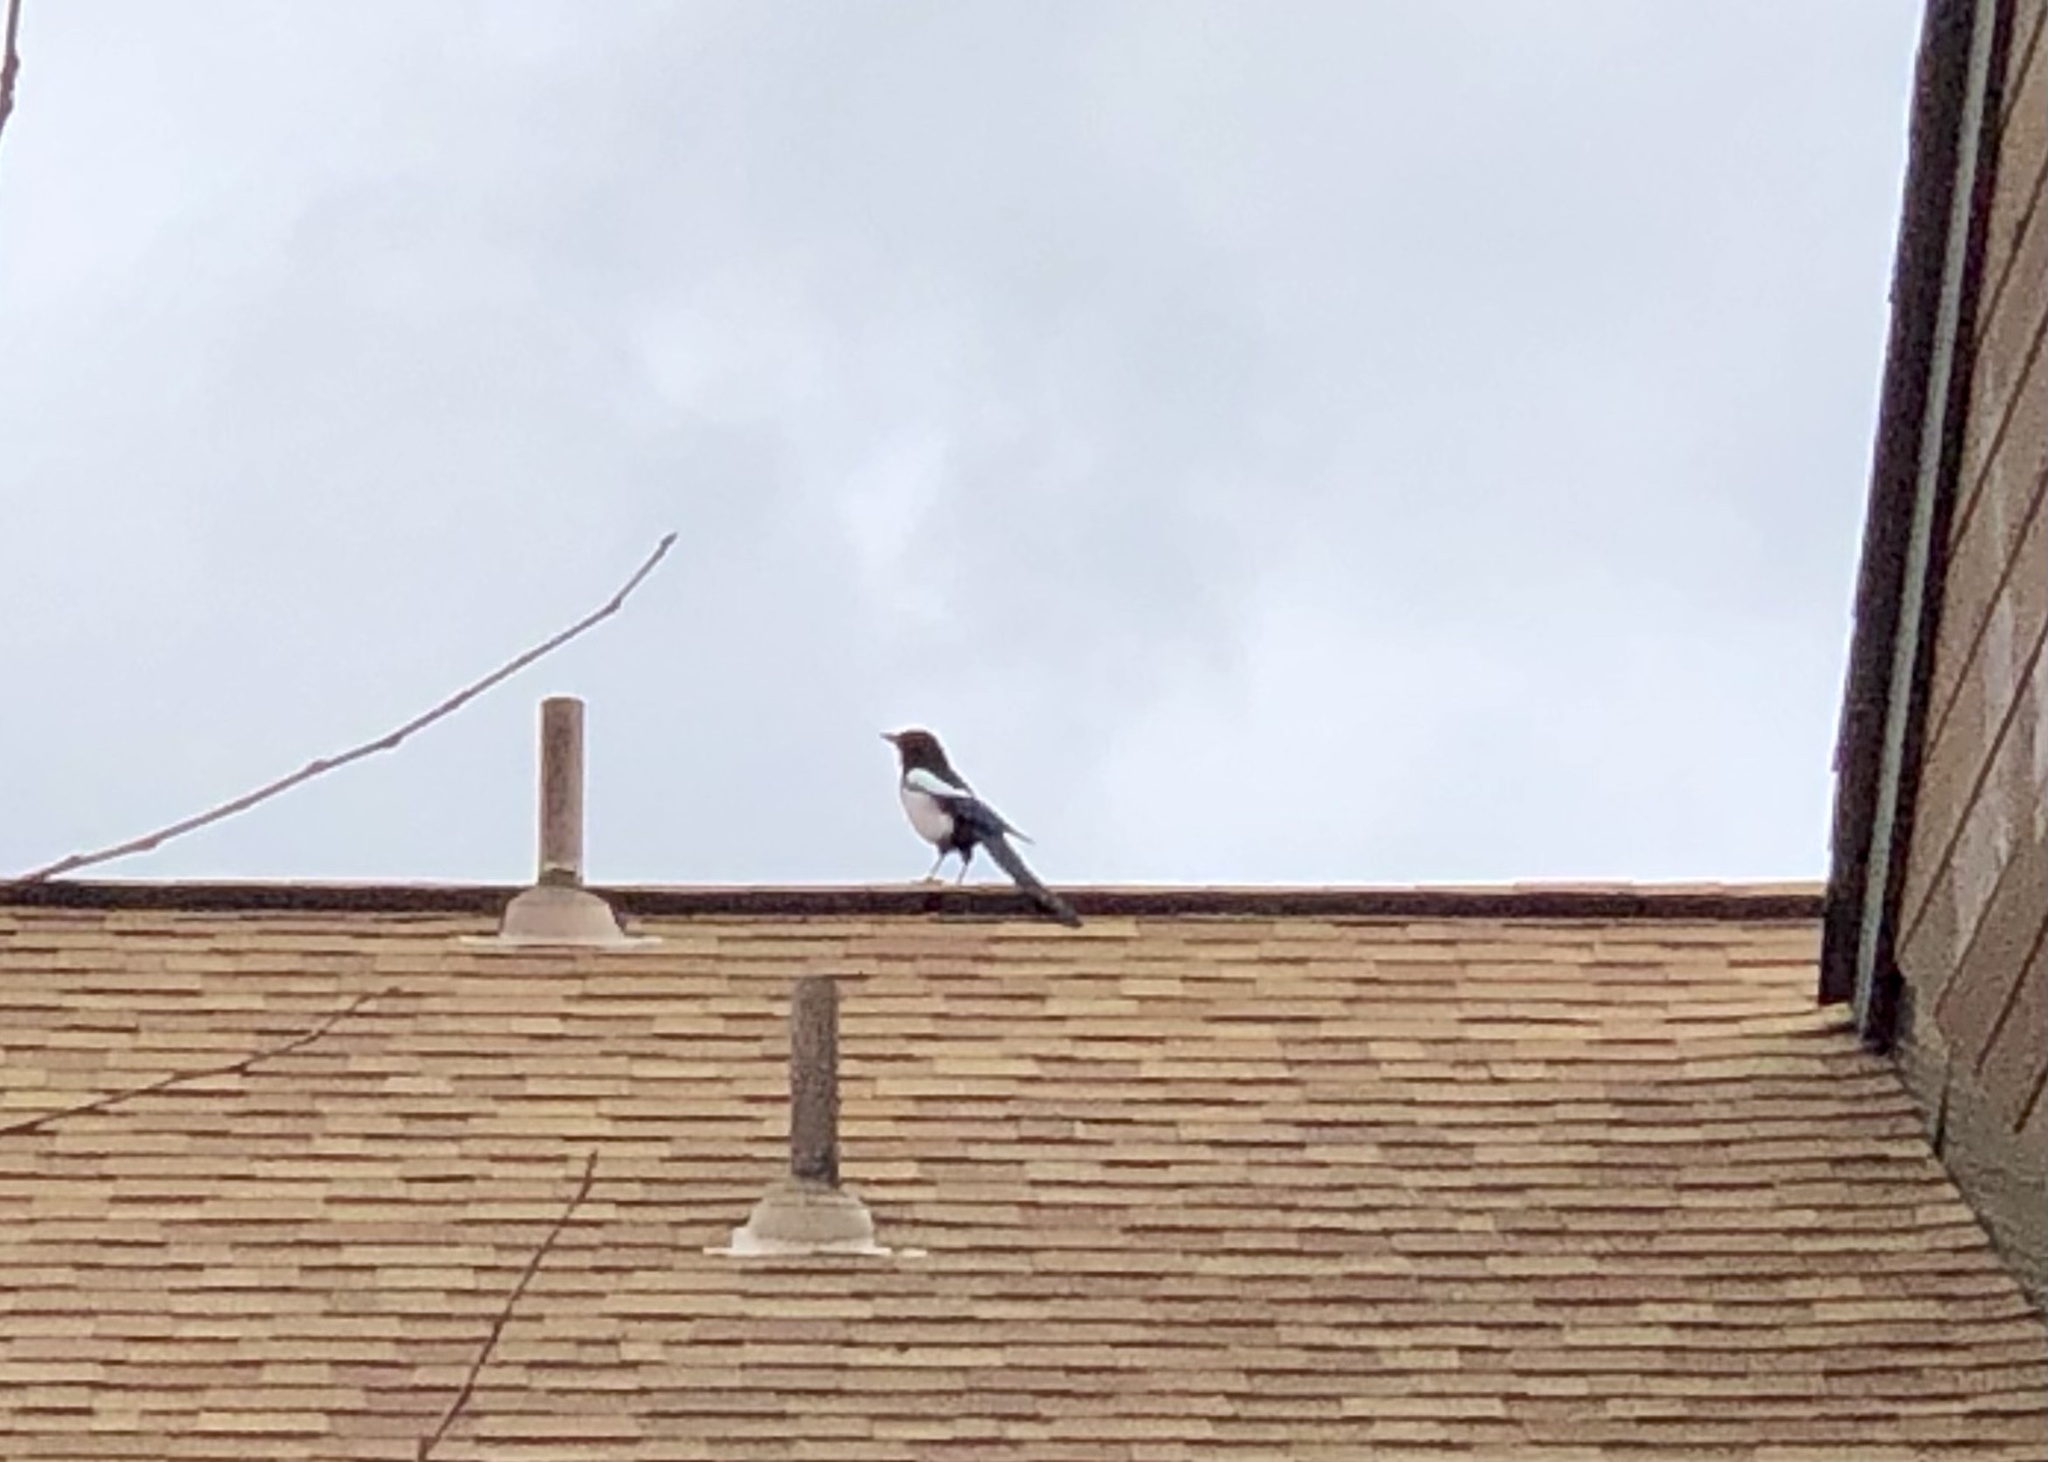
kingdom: Animalia
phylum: Chordata
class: Aves
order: Passeriformes
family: Corvidae
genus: Pica
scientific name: Pica hudsonia
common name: Black-billed magpie
